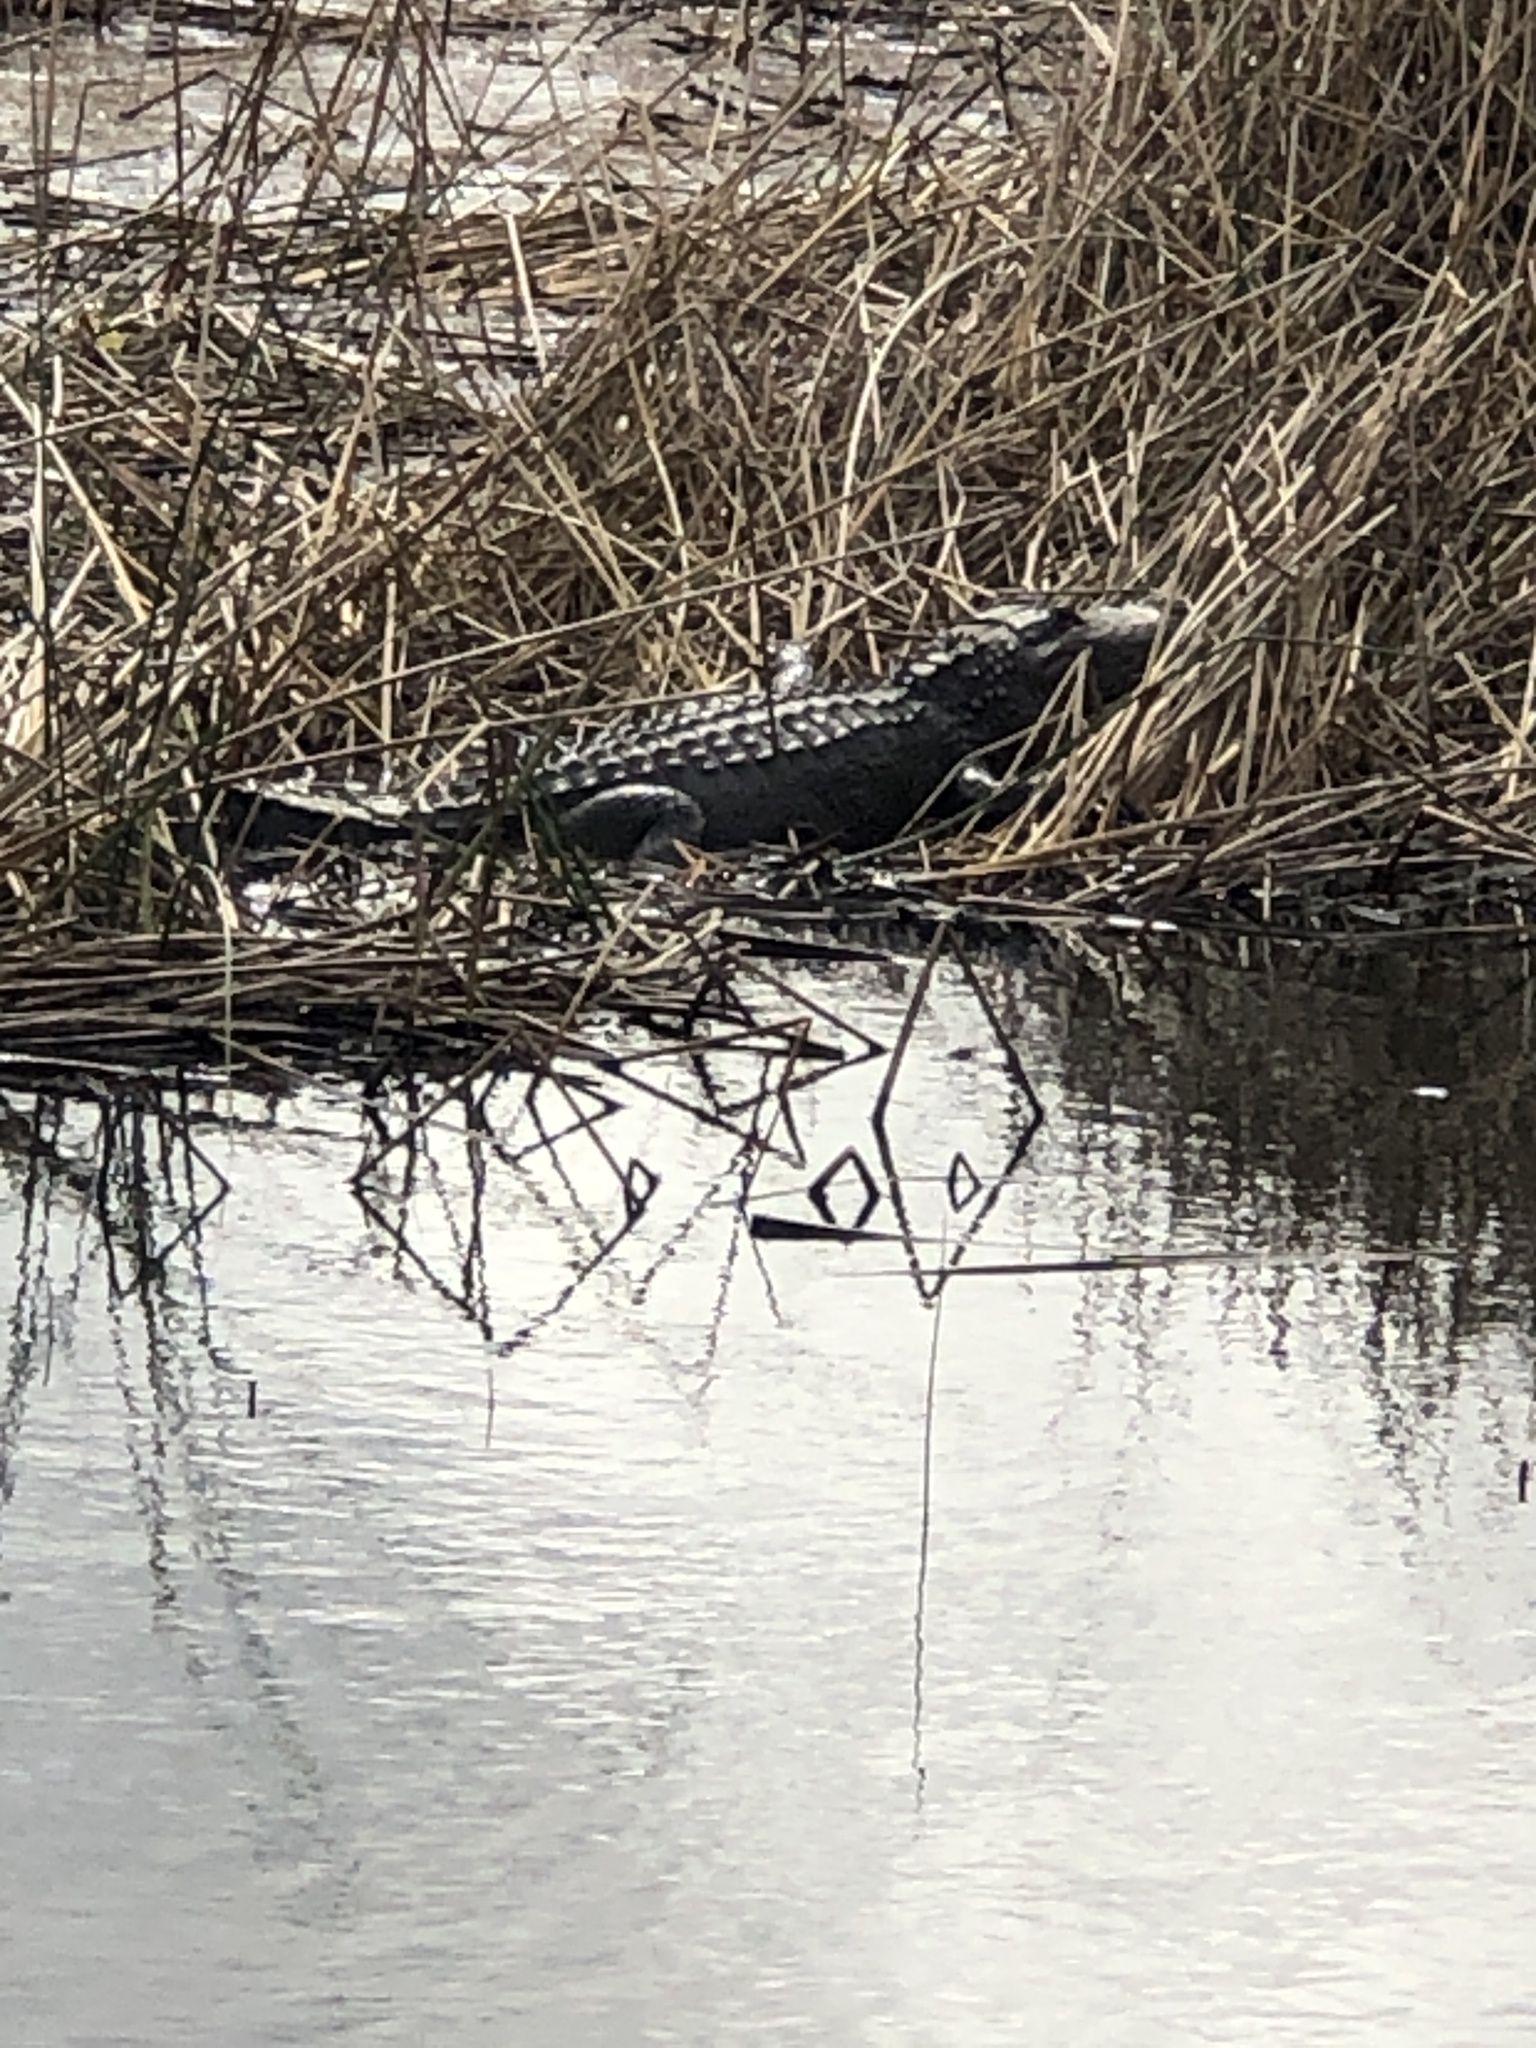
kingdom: Animalia
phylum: Chordata
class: Crocodylia
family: Alligatoridae
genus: Alligator
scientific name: Alligator mississippiensis
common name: American alligator
